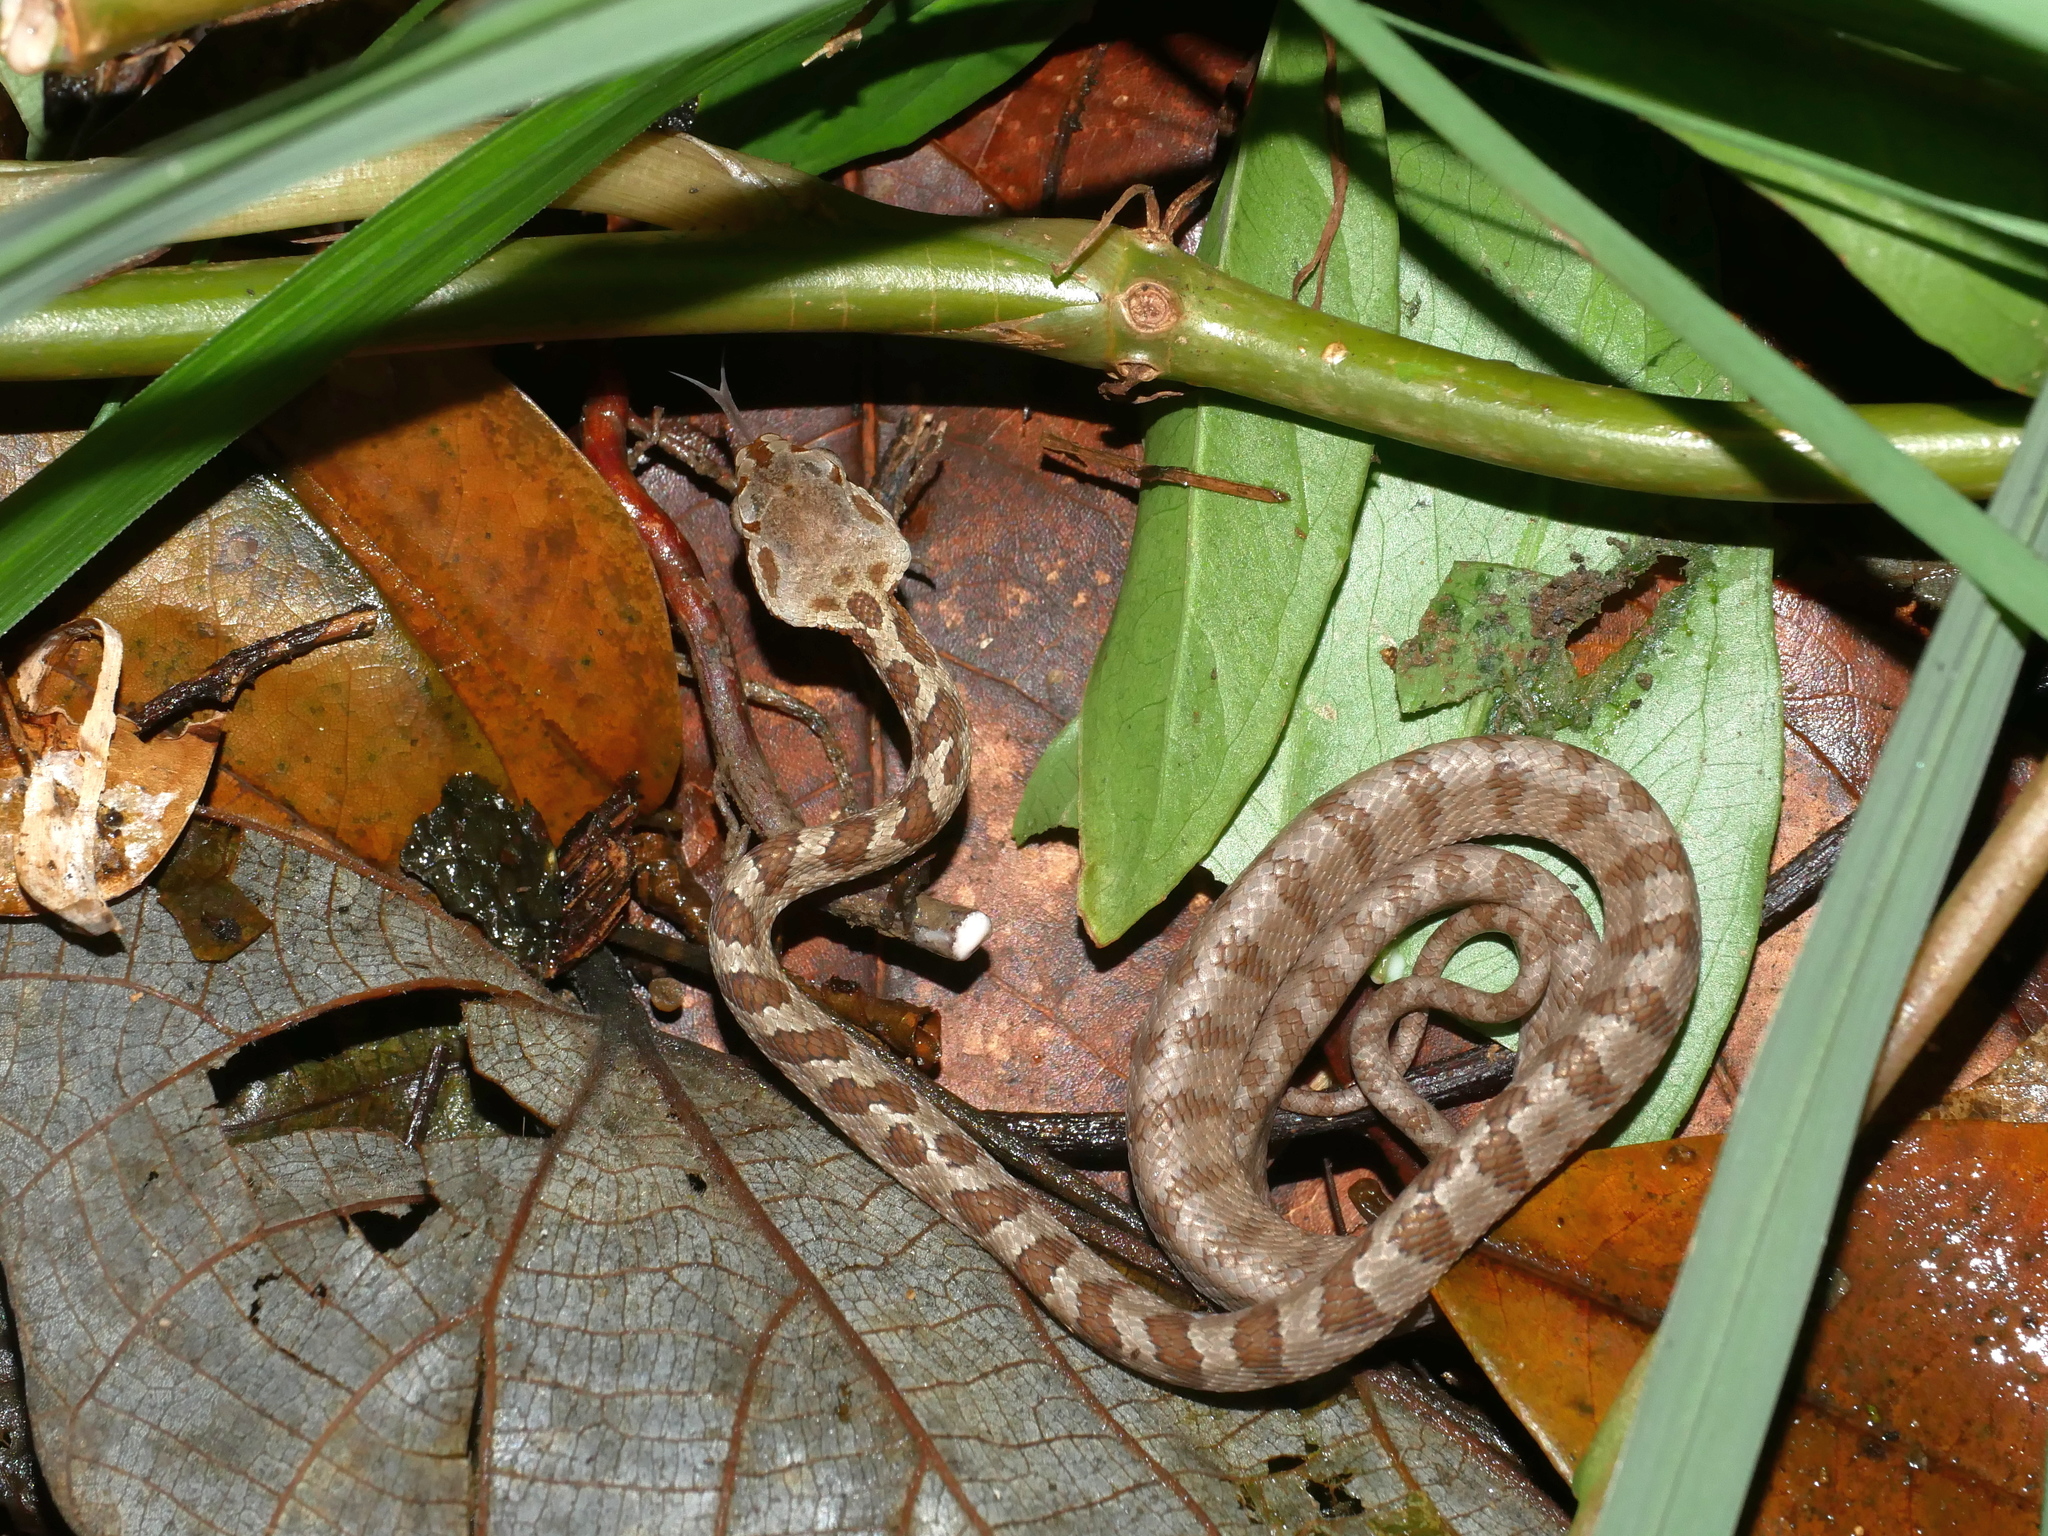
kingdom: Animalia
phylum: Chordata
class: Squamata
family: Colubridae
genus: Boiga
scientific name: Boiga kraepelini
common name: Kelung cat snake
